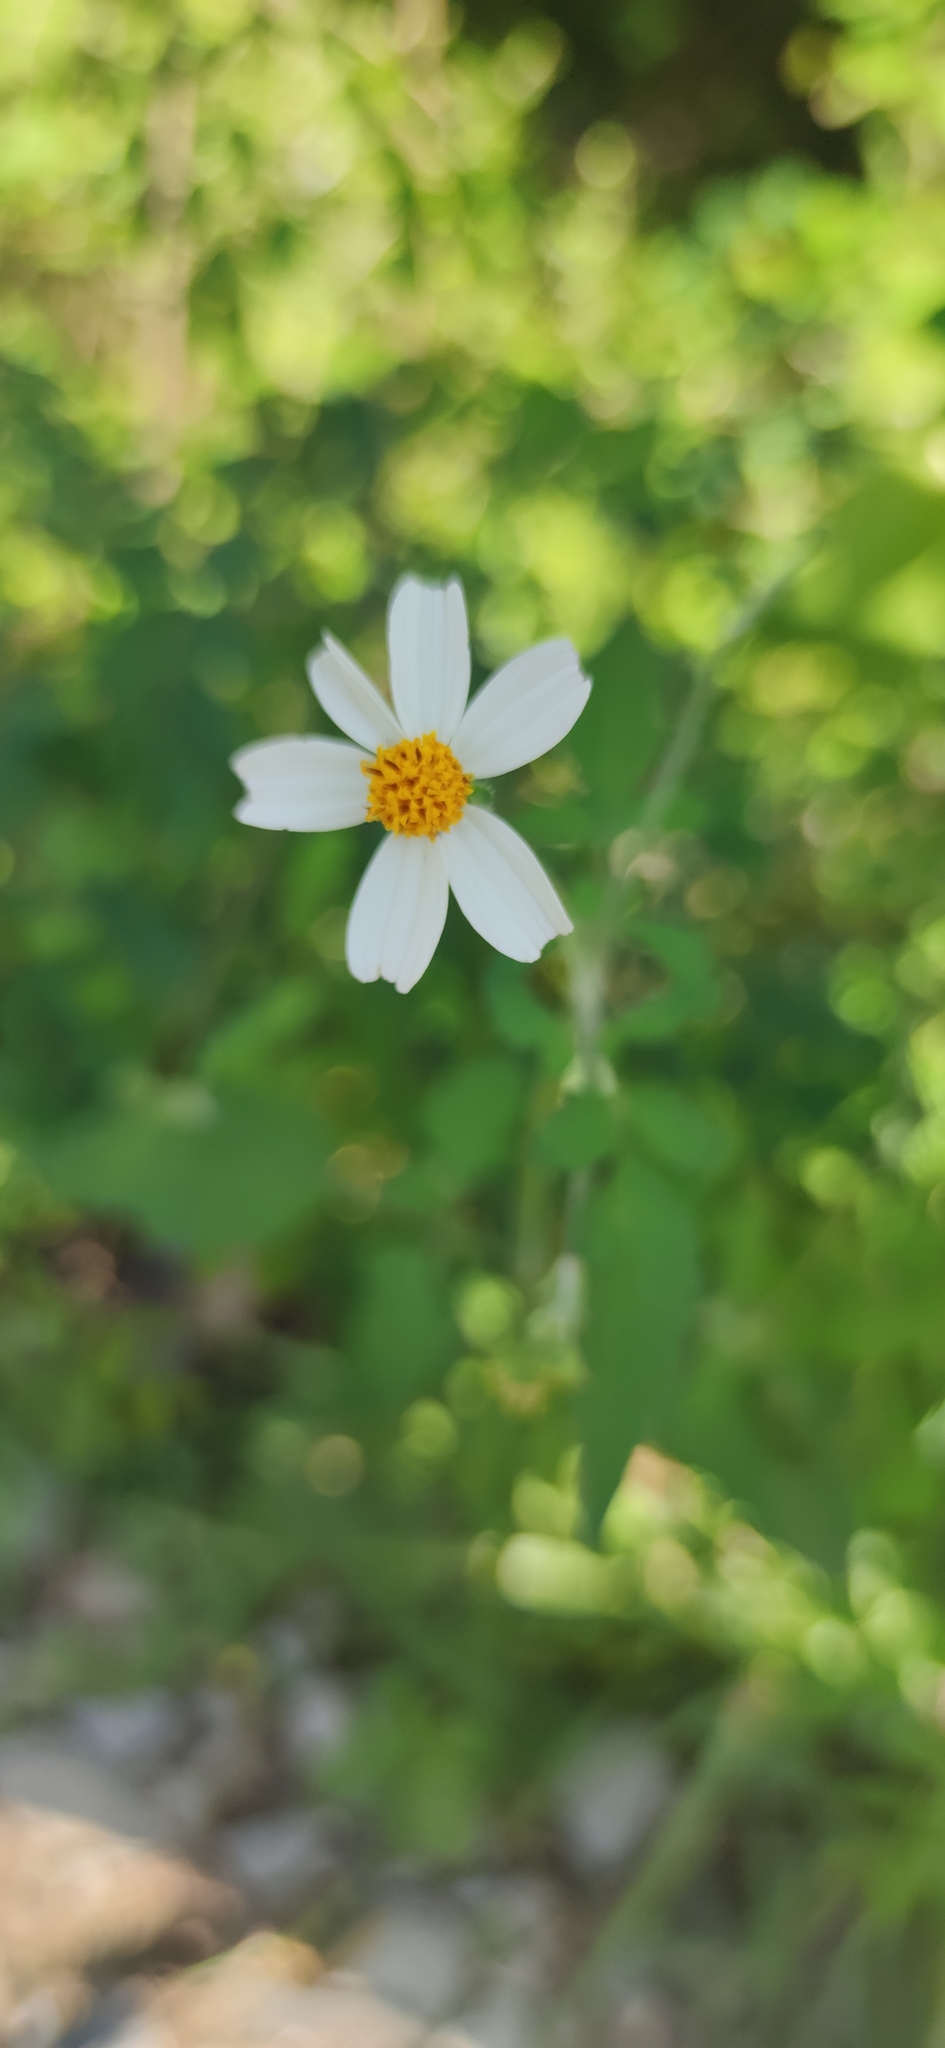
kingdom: Plantae
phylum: Tracheophyta
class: Magnoliopsida
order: Asterales
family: Asteraceae
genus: Bidens
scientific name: Bidens pilosa
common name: Black-jack
